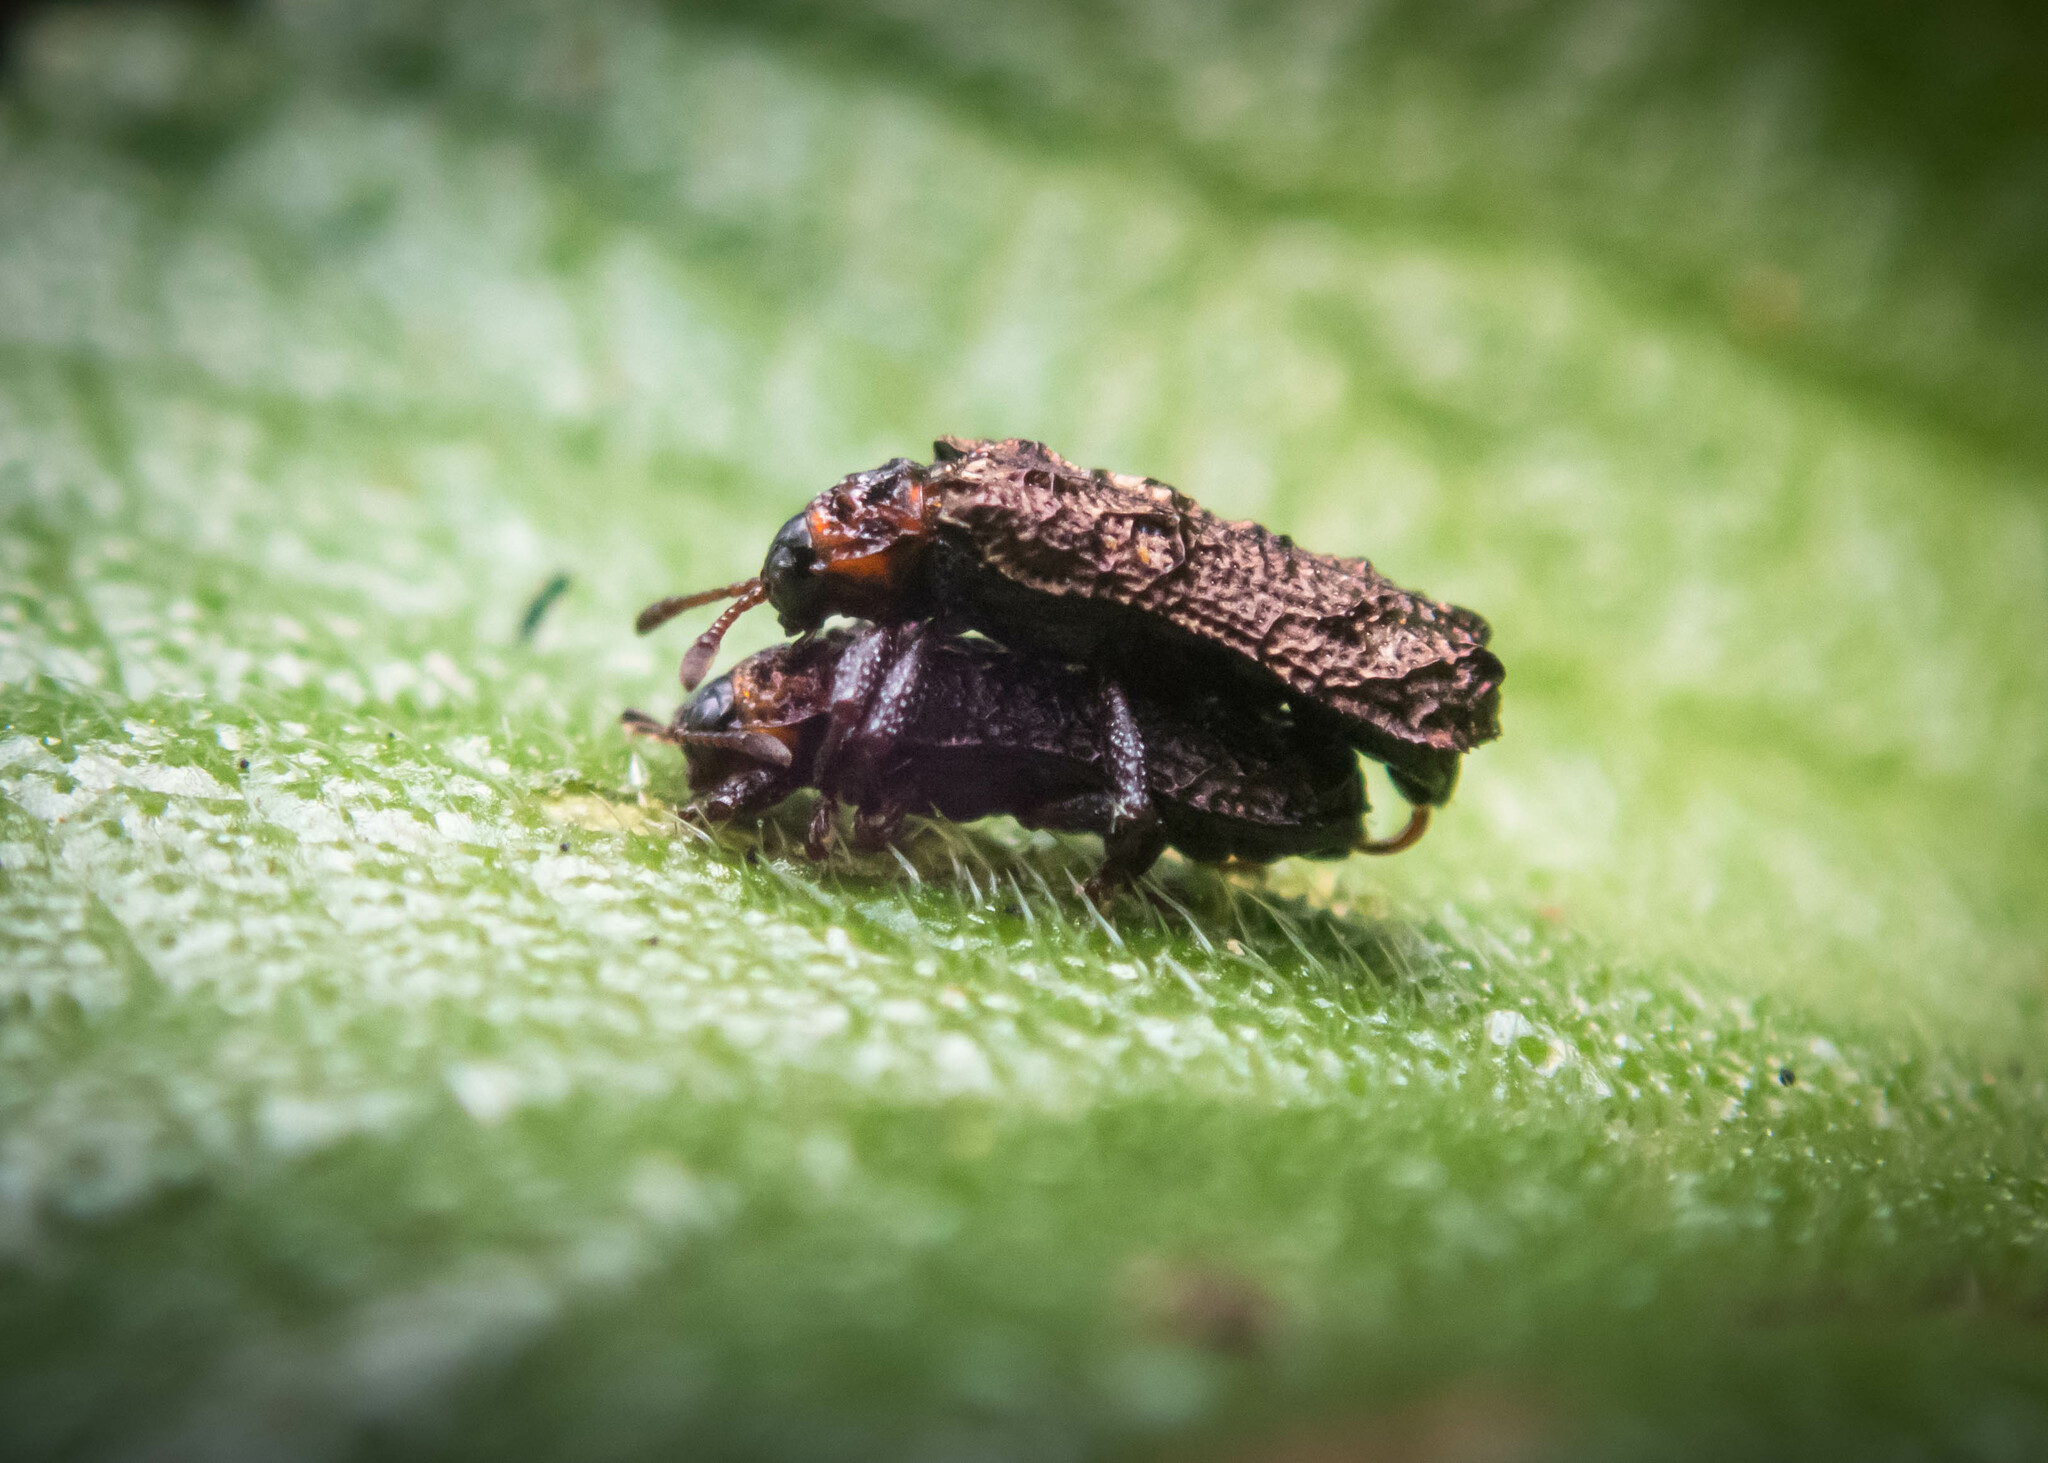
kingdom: Animalia
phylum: Arthropoda
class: Insecta
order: Coleoptera
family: Chrysomelidae
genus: Octotoma
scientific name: Octotoma scabripennis
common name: Beetle
